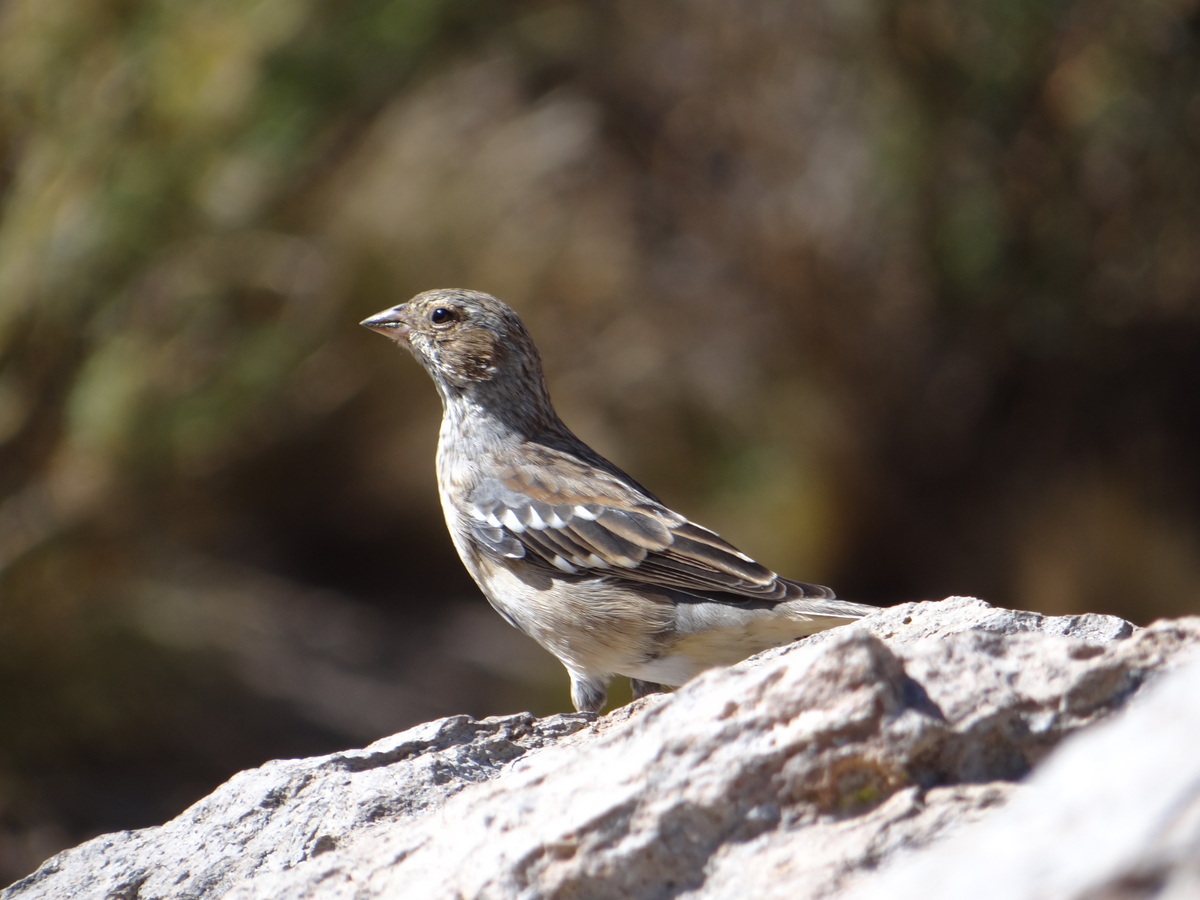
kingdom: Animalia
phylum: Chordata
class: Aves
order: Passeriformes
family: Thraupidae
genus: Rhopospina
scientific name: Rhopospina fruticeti
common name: Mourning sierra finch
